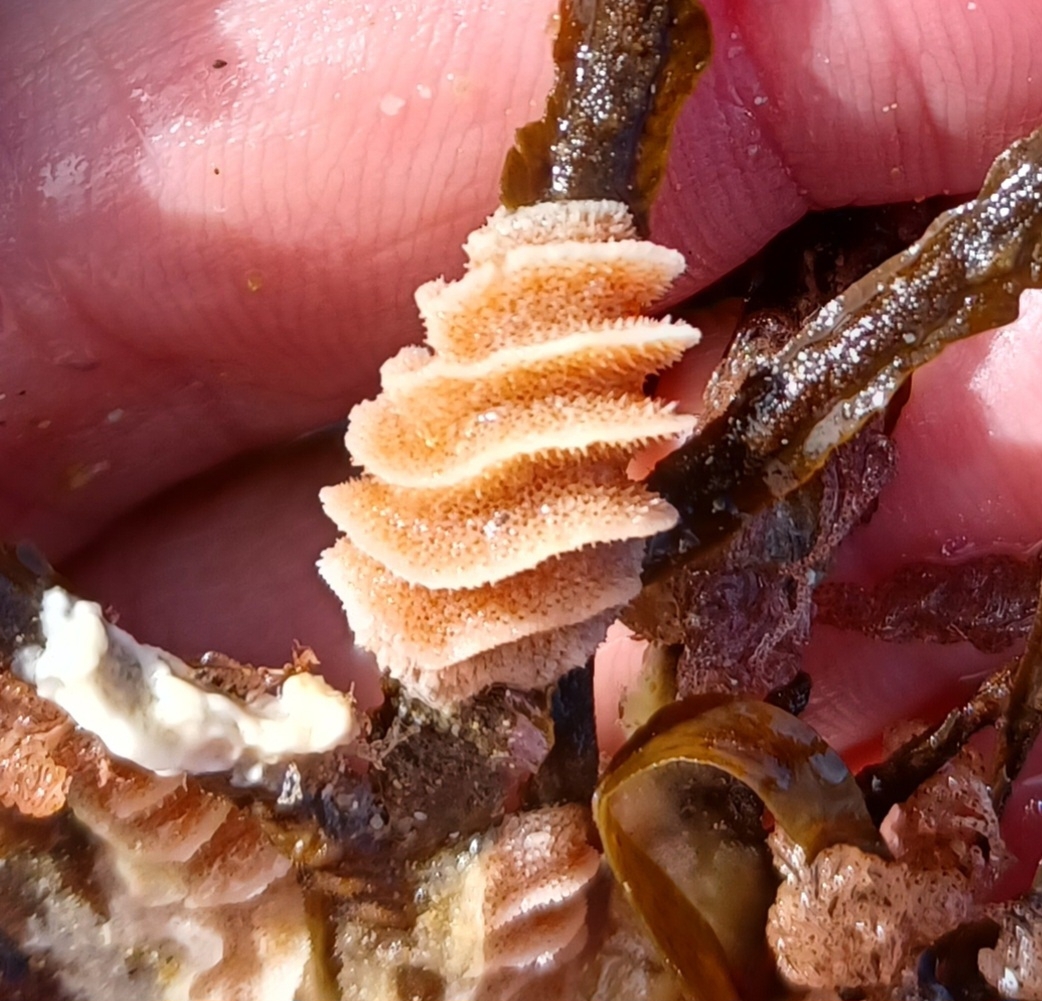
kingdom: Animalia
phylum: Bryozoa
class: Gymnolaemata
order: Cheilostomatida
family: Celleporidae
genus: Celleporaria
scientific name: Celleporaria cristata
